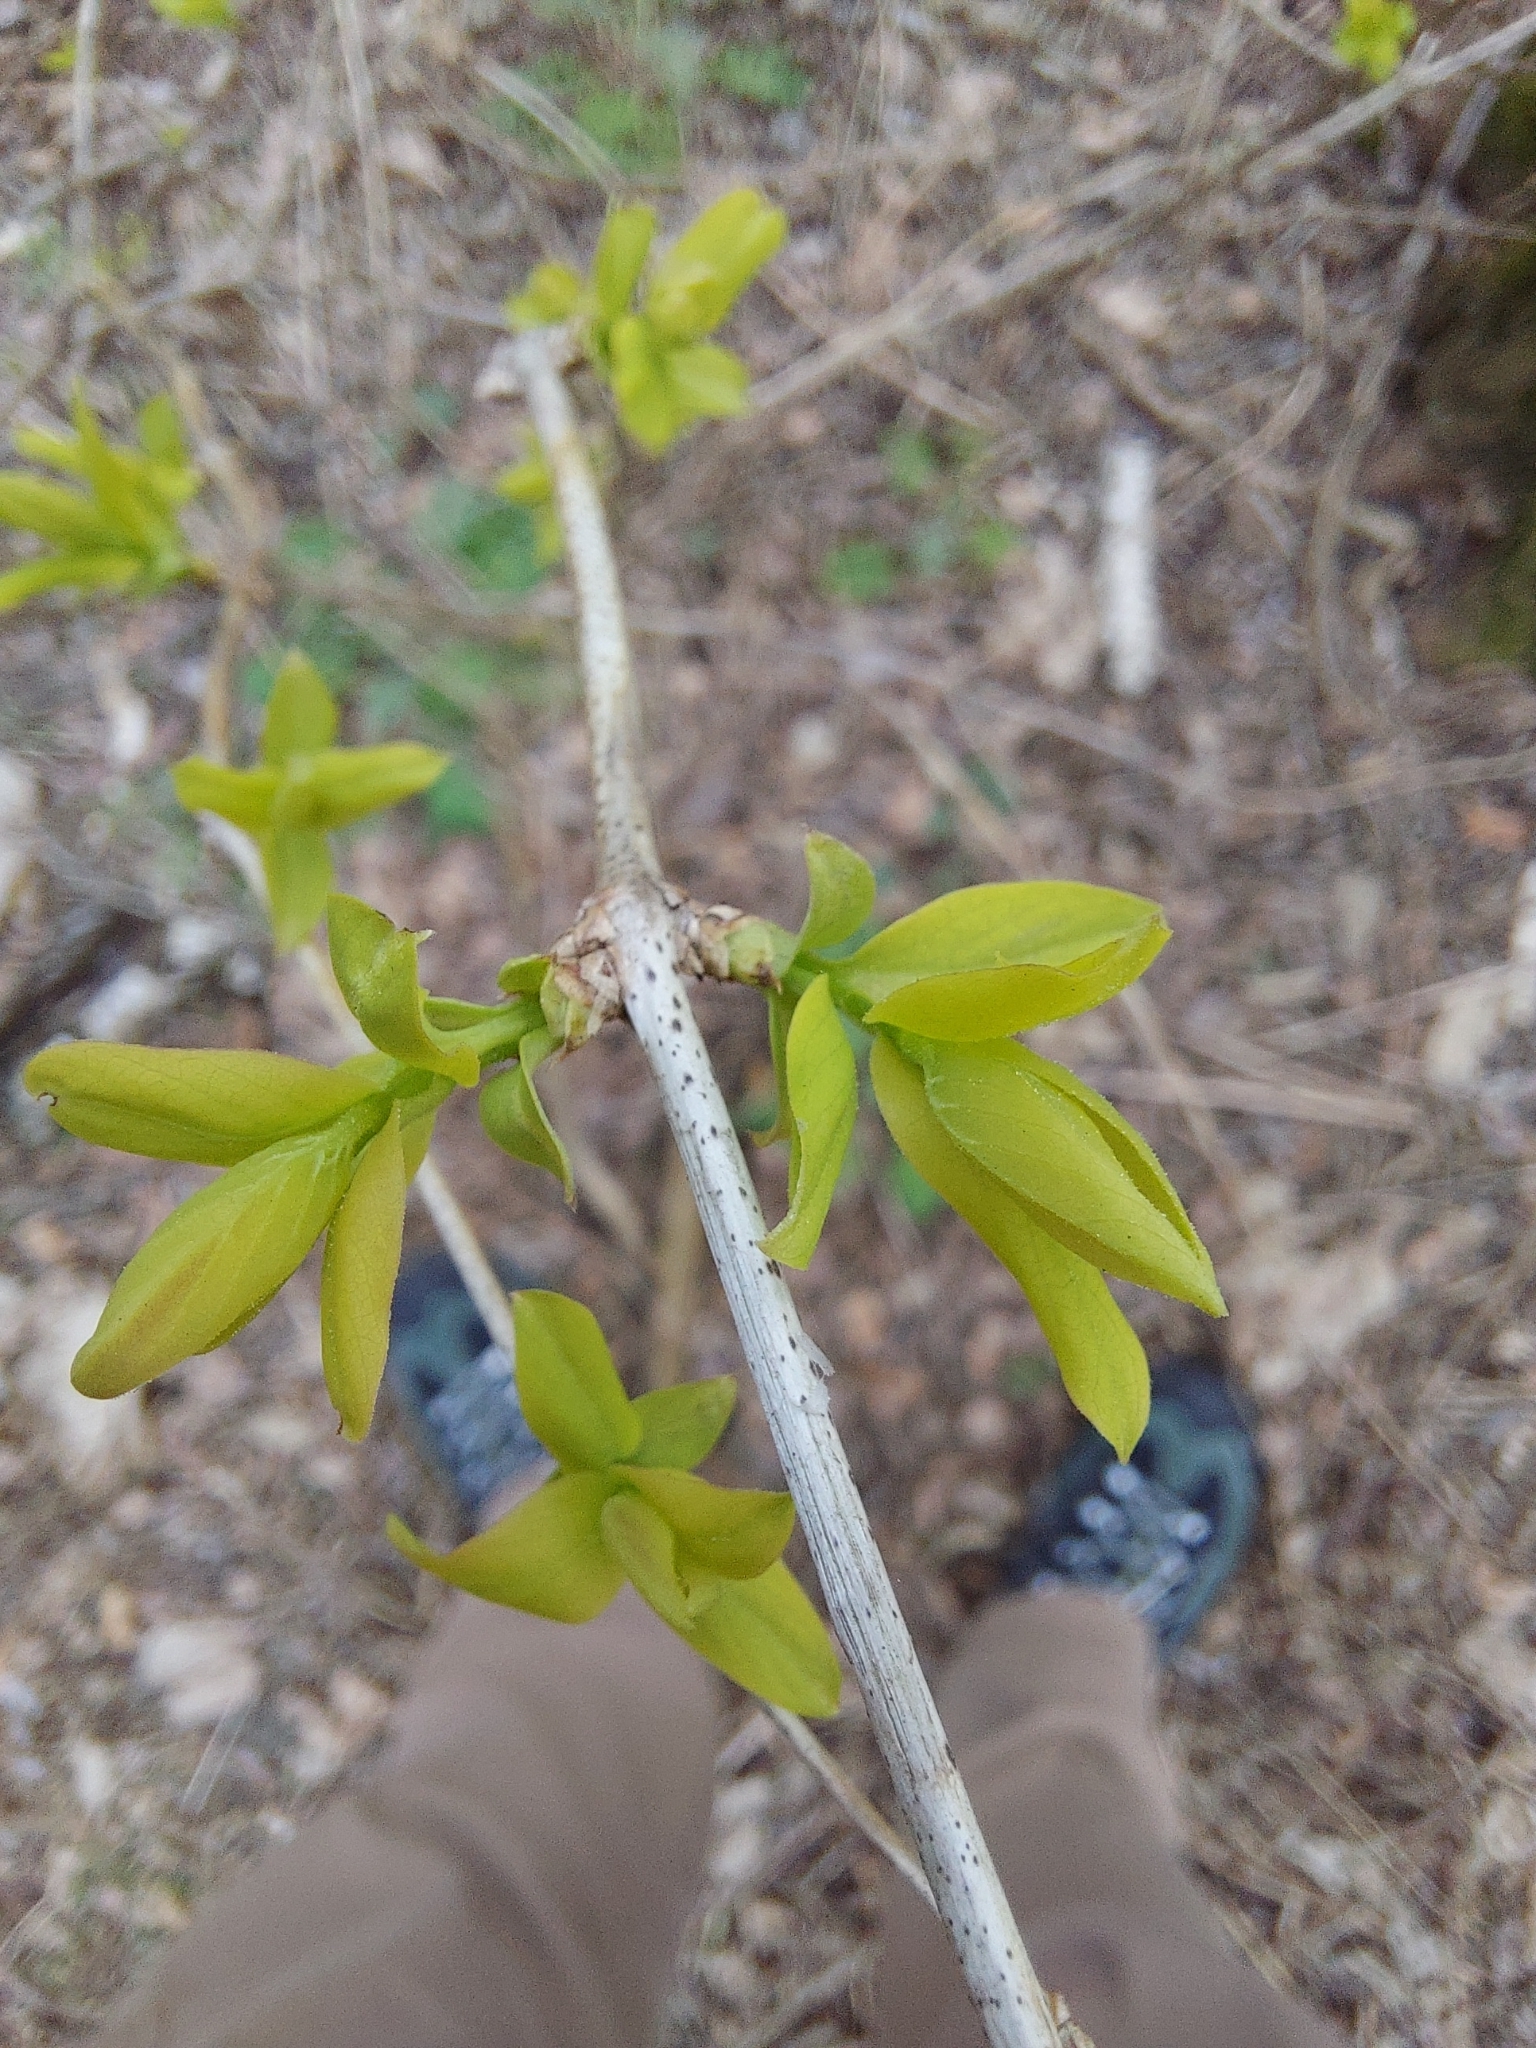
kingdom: Plantae
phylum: Tracheophyta
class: Magnoliopsida
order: Dipsacales
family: Caprifoliaceae
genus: Lonicera
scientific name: Lonicera tatarica
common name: Tatarian honeysuckle
